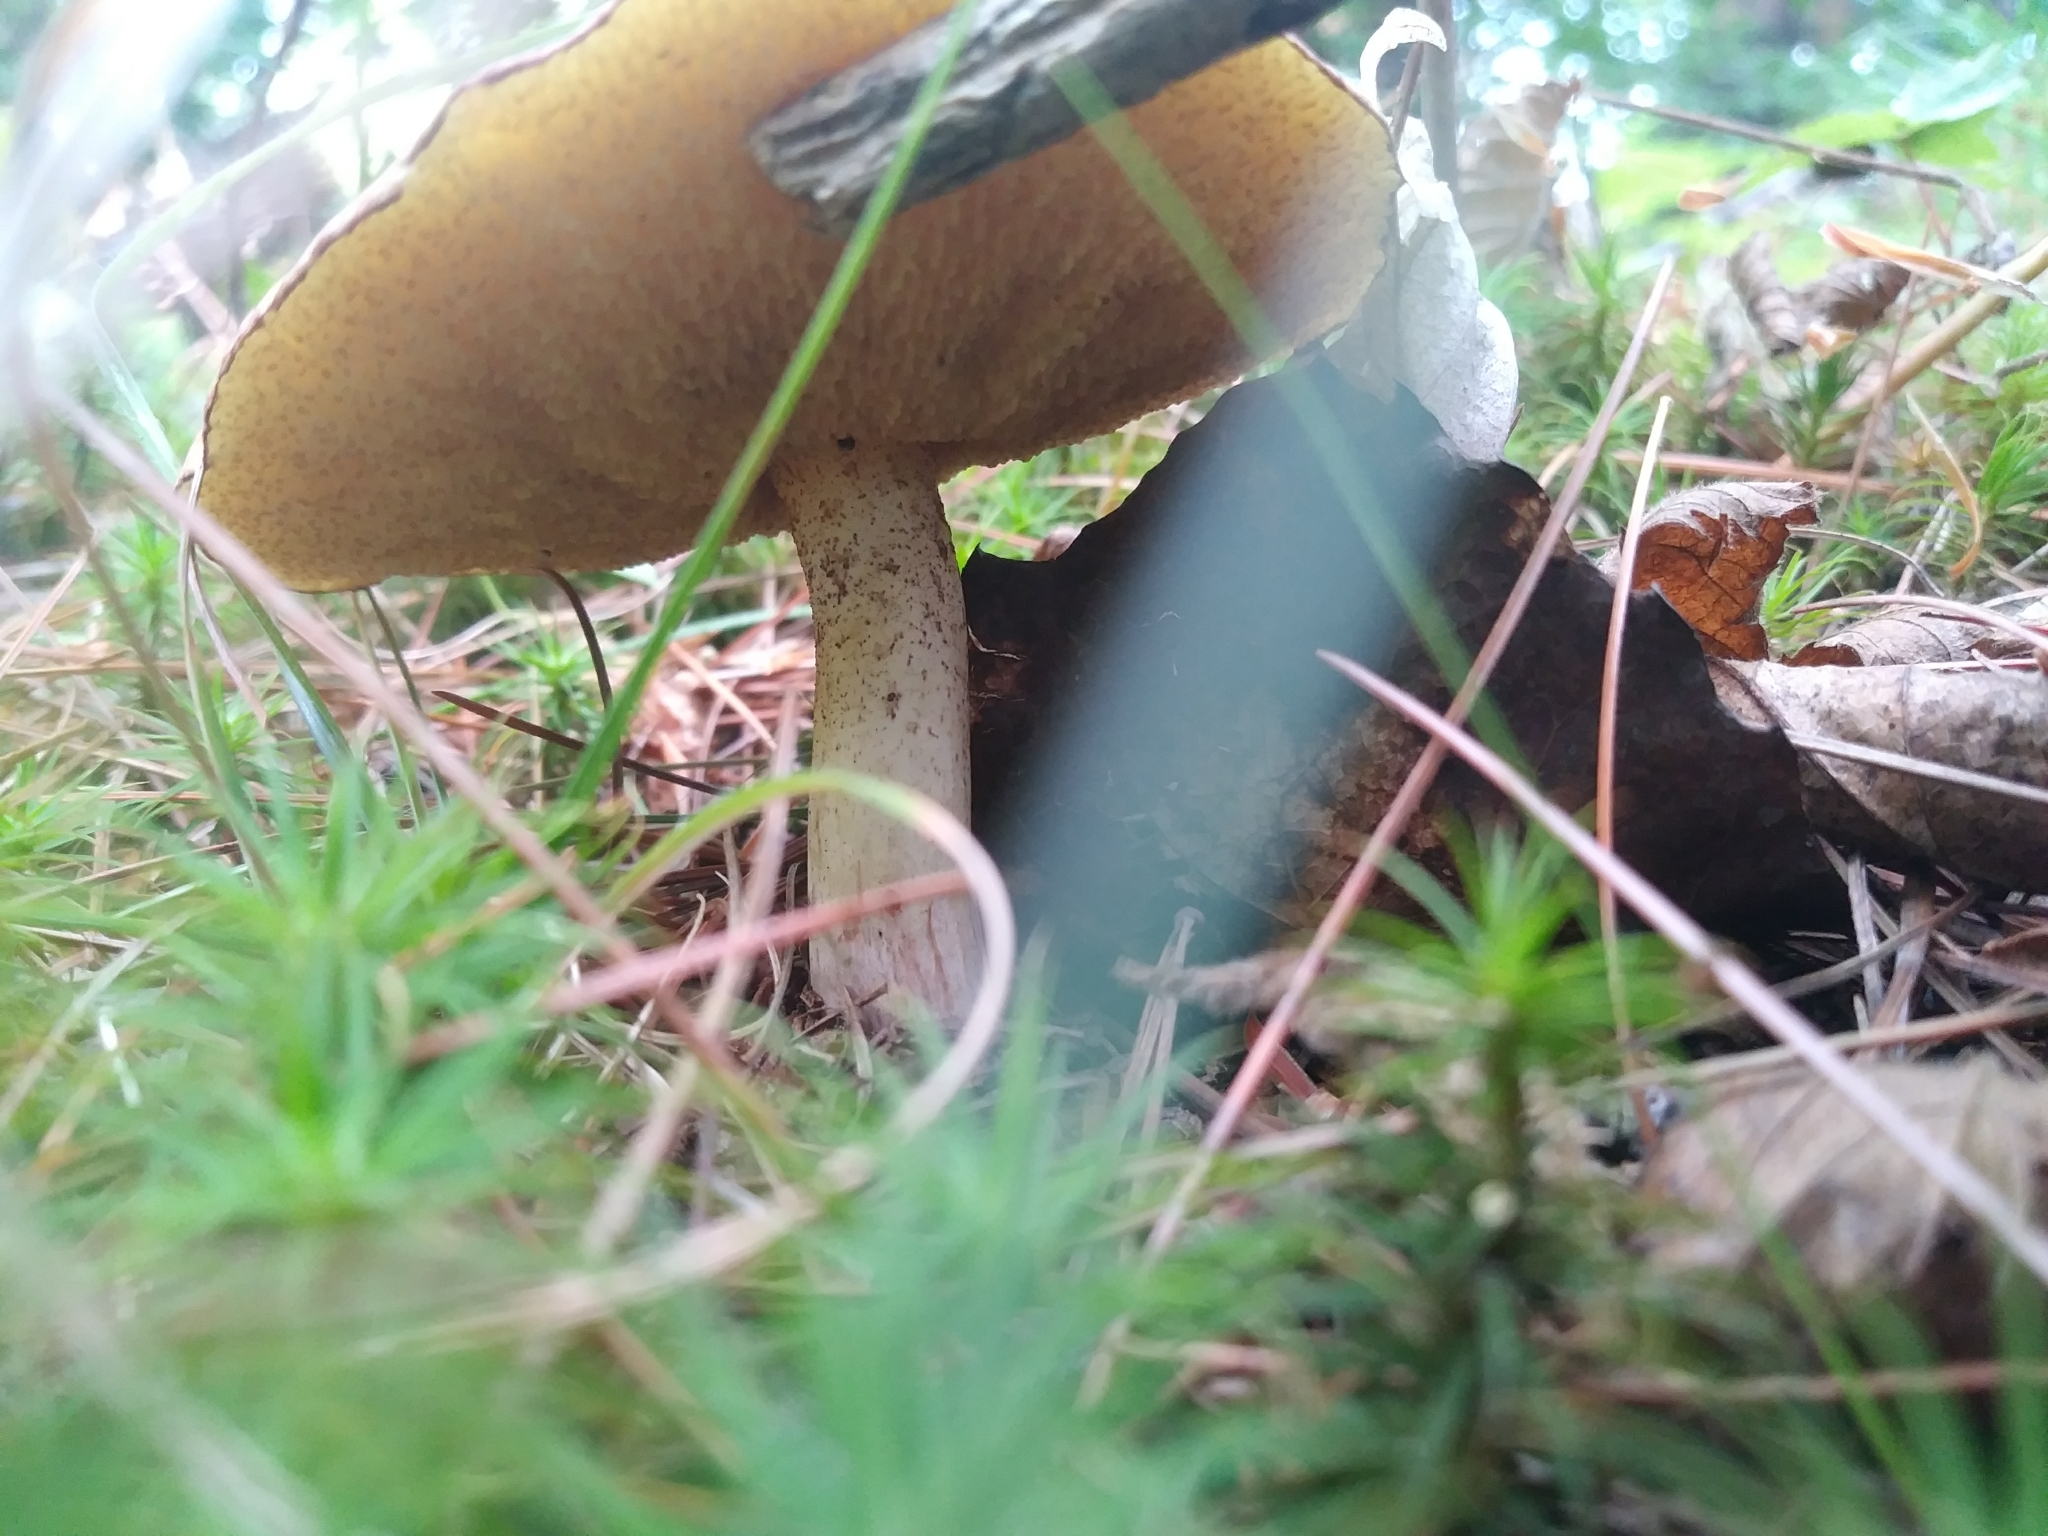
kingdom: Fungi
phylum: Basidiomycota
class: Agaricomycetes
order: Boletales
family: Suillaceae
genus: Suillus
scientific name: Suillus granulatus
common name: Weeping bolete
